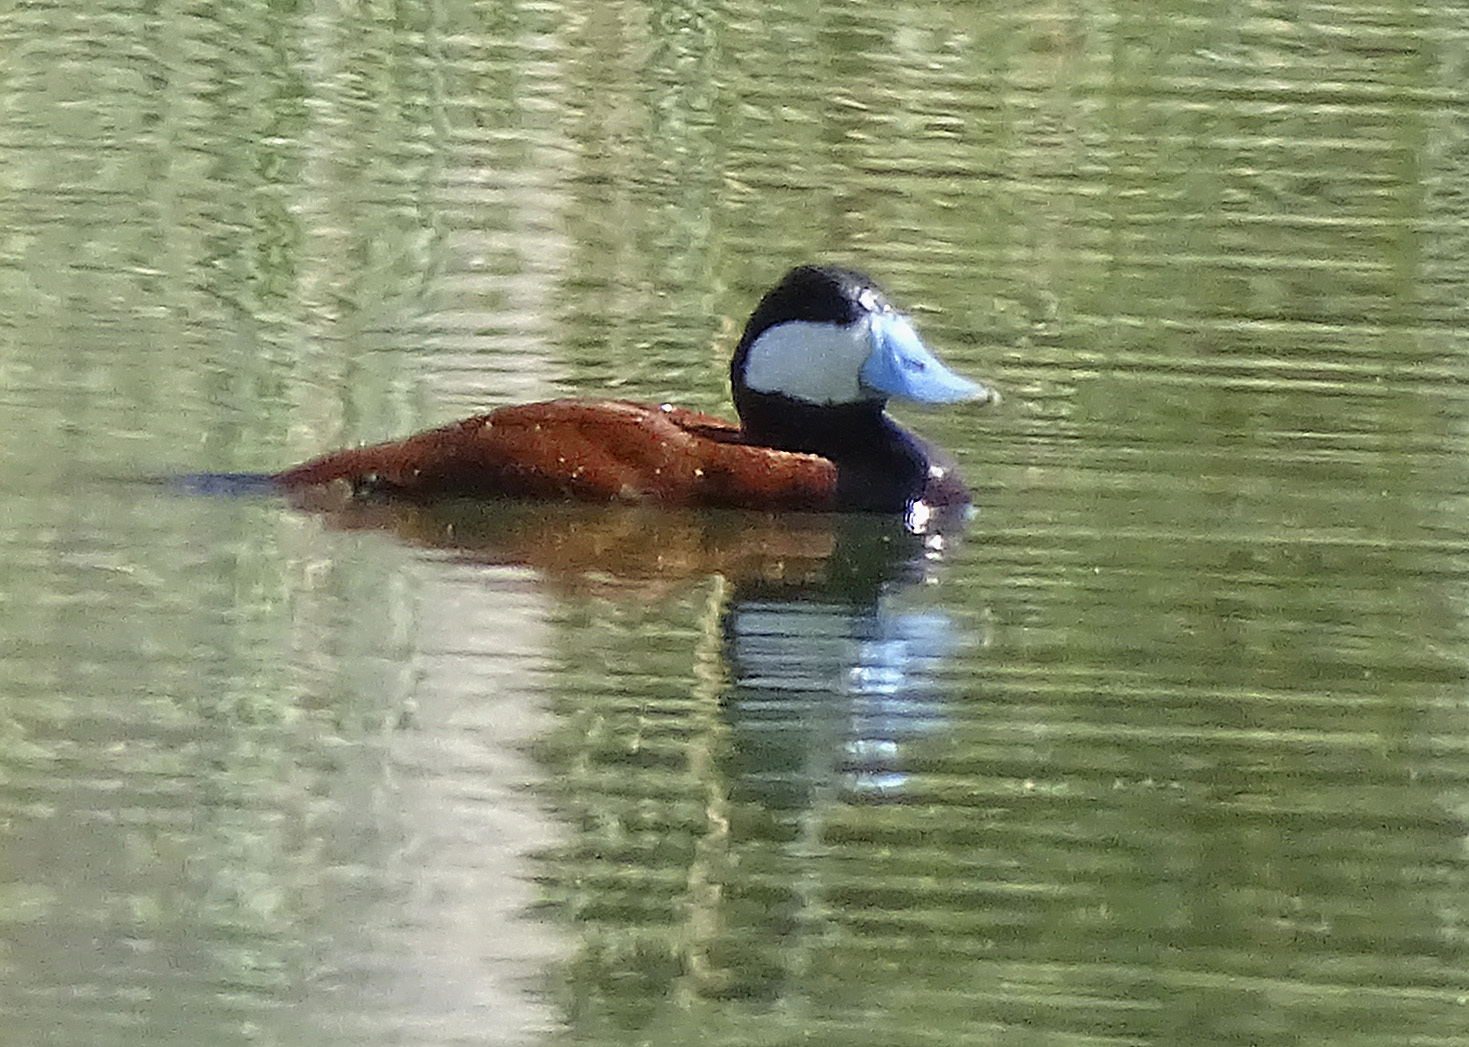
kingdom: Animalia
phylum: Chordata
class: Aves
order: Anseriformes
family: Anatidae
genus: Oxyura
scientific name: Oxyura jamaicensis
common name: Ruddy duck
